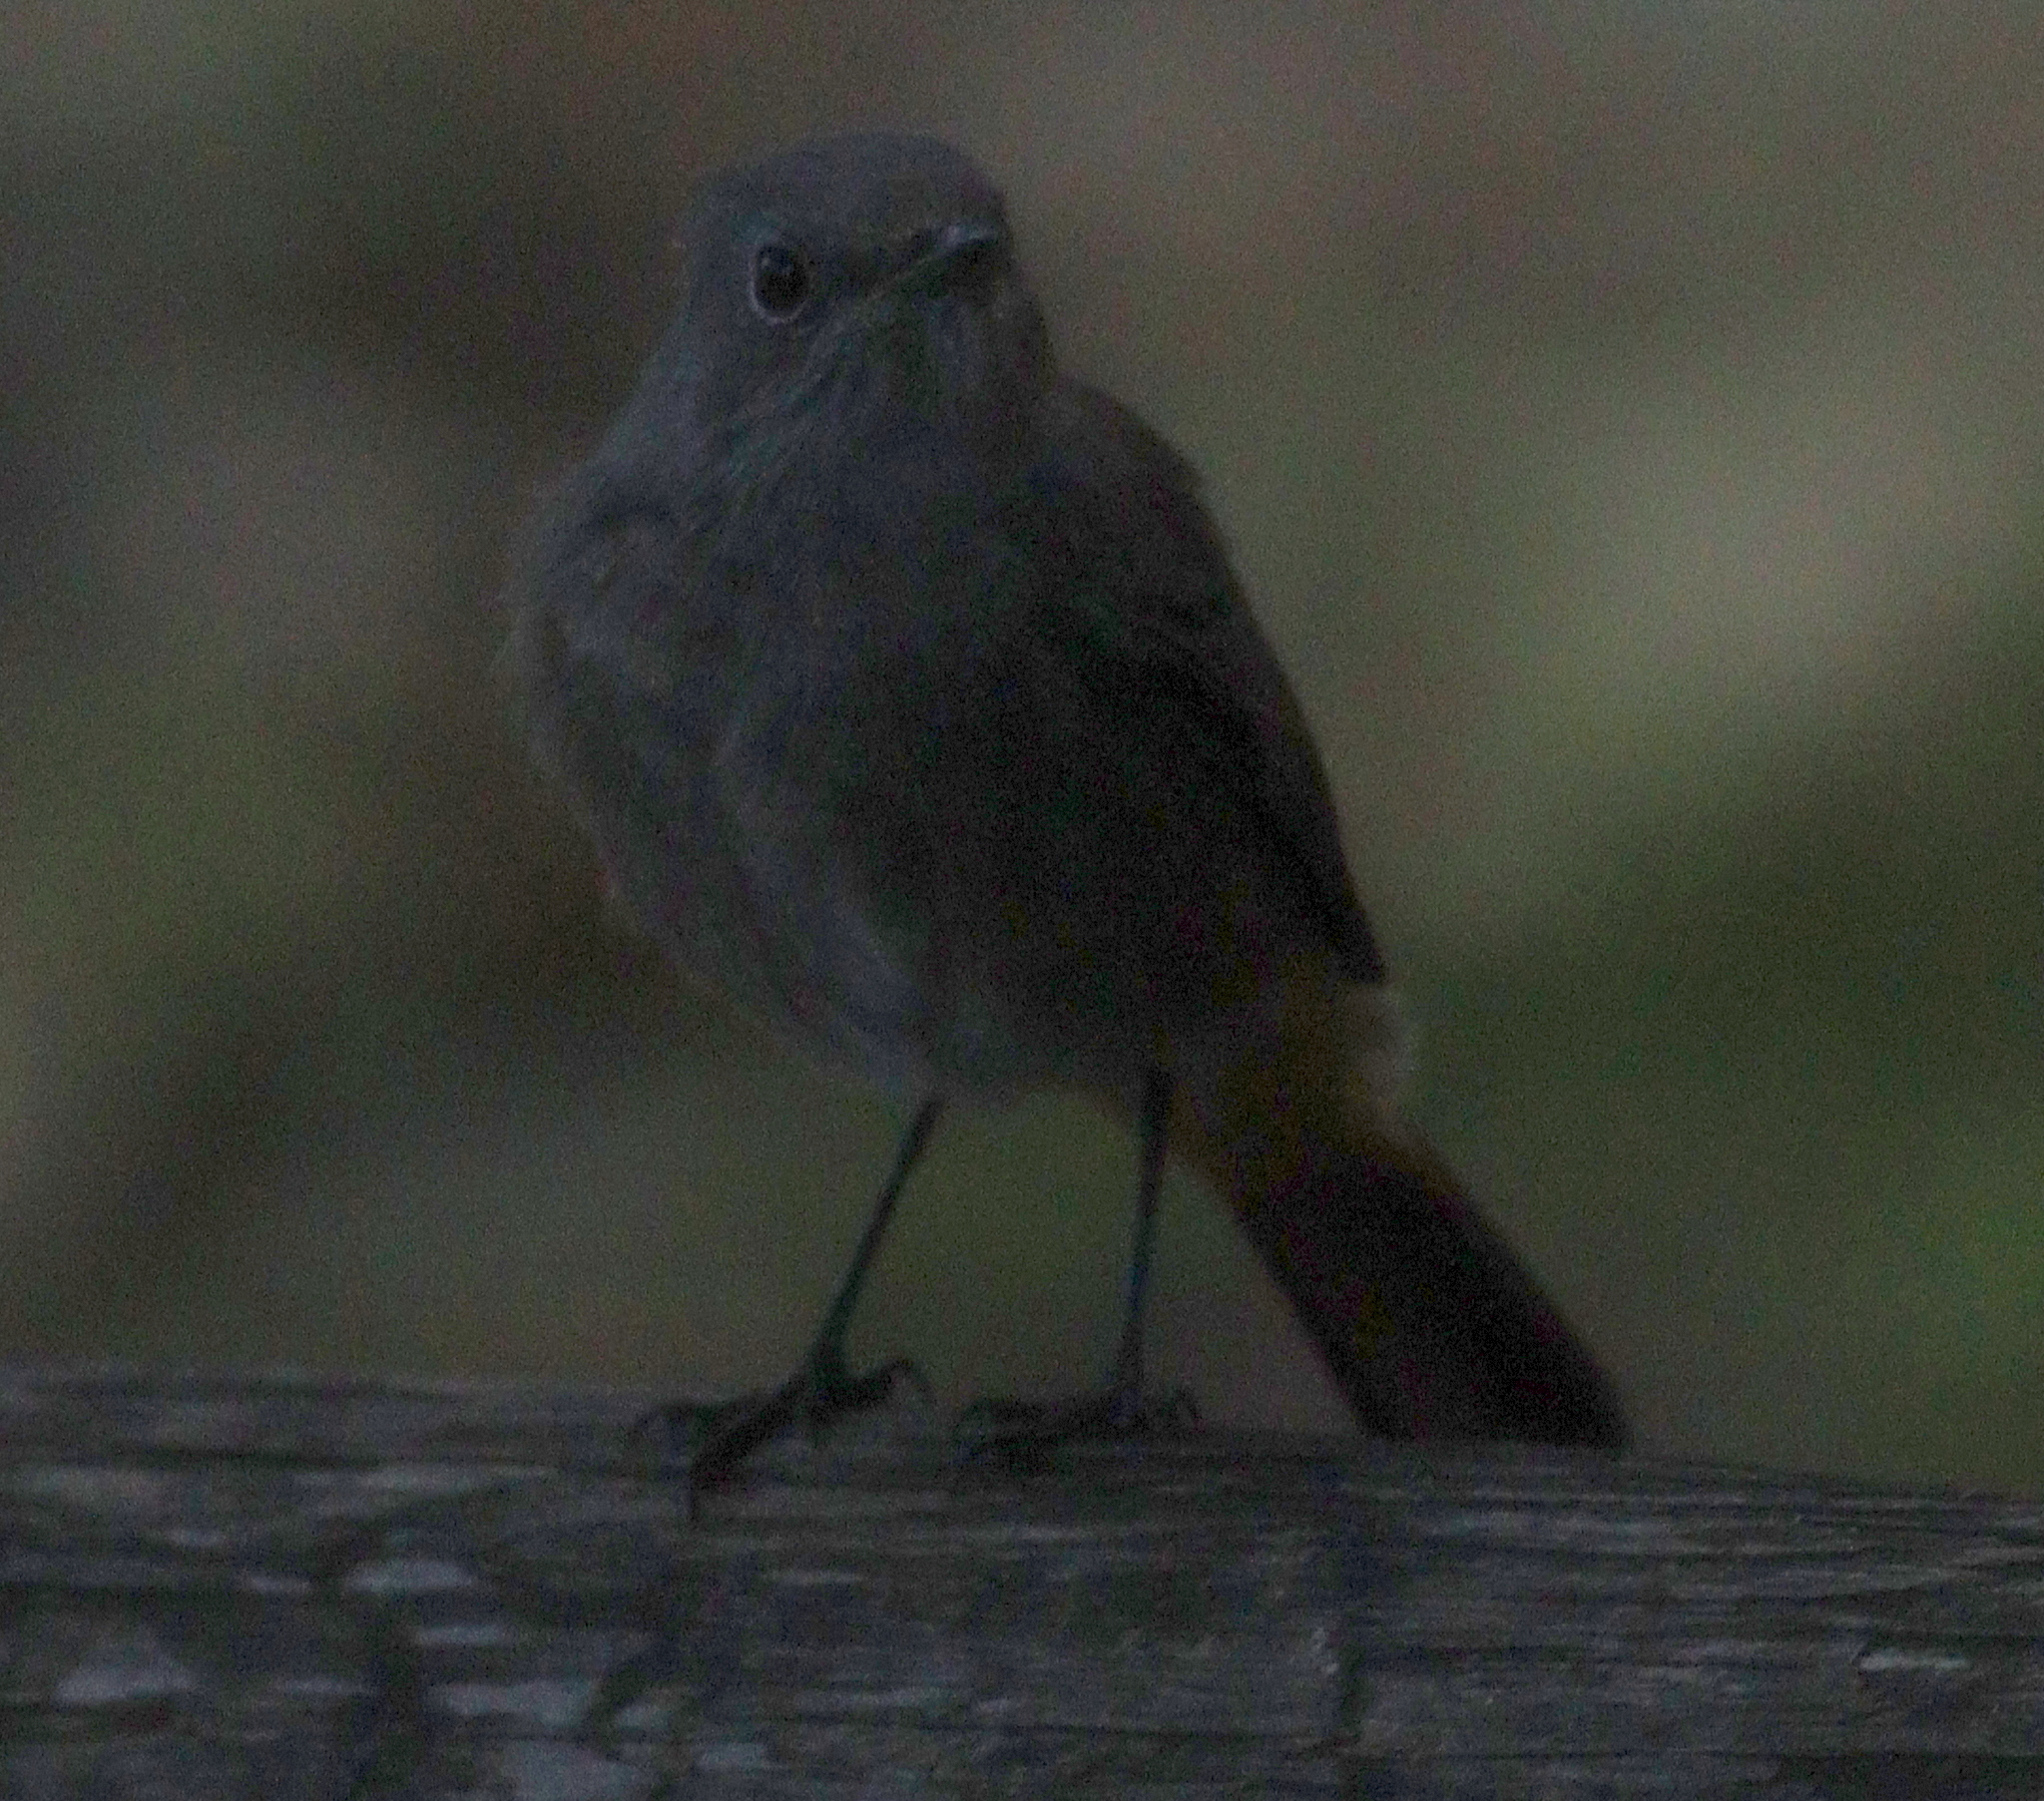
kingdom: Animalia
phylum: Chordata
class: Aves
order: Passeriformes
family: Muscicapidae
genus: Phoenicurus
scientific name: Phoenicurus ochruros
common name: Black redstart
